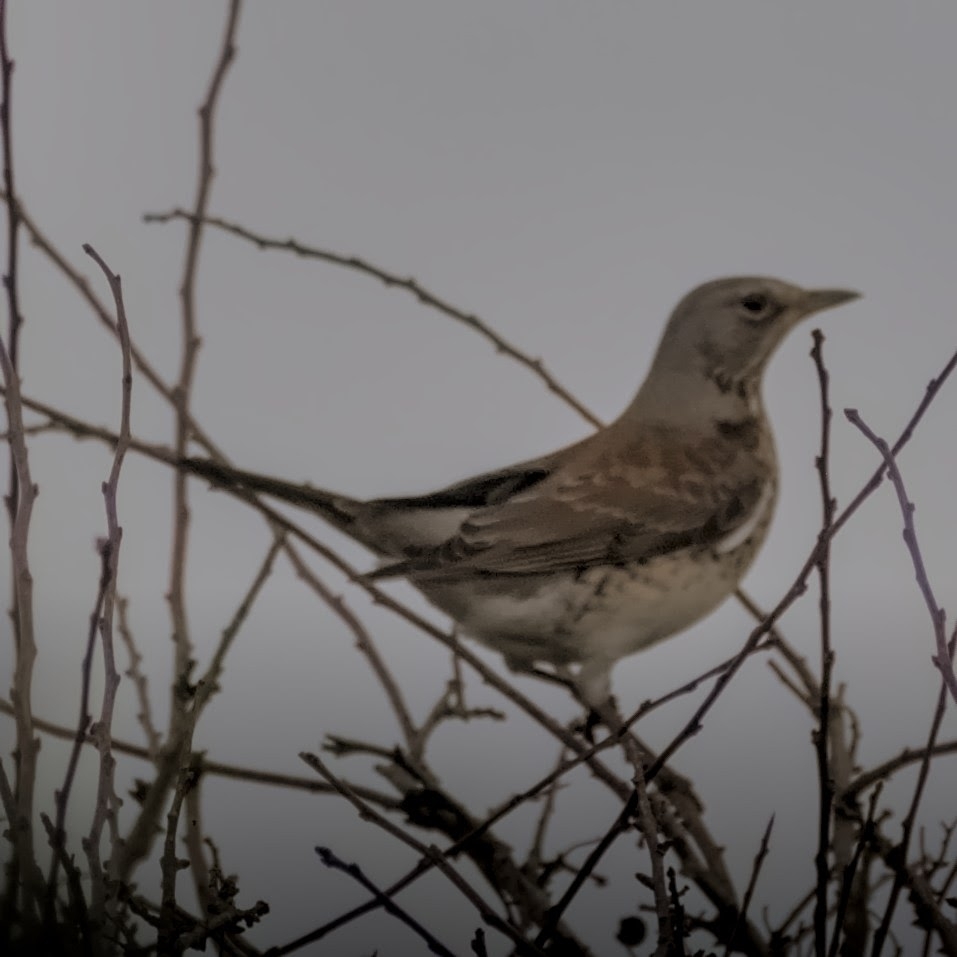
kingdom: Animalia
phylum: Chordata
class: Aves
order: Passeriformes
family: Turdidae
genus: Turdus
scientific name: Turdus pilaris
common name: Fieldfare
